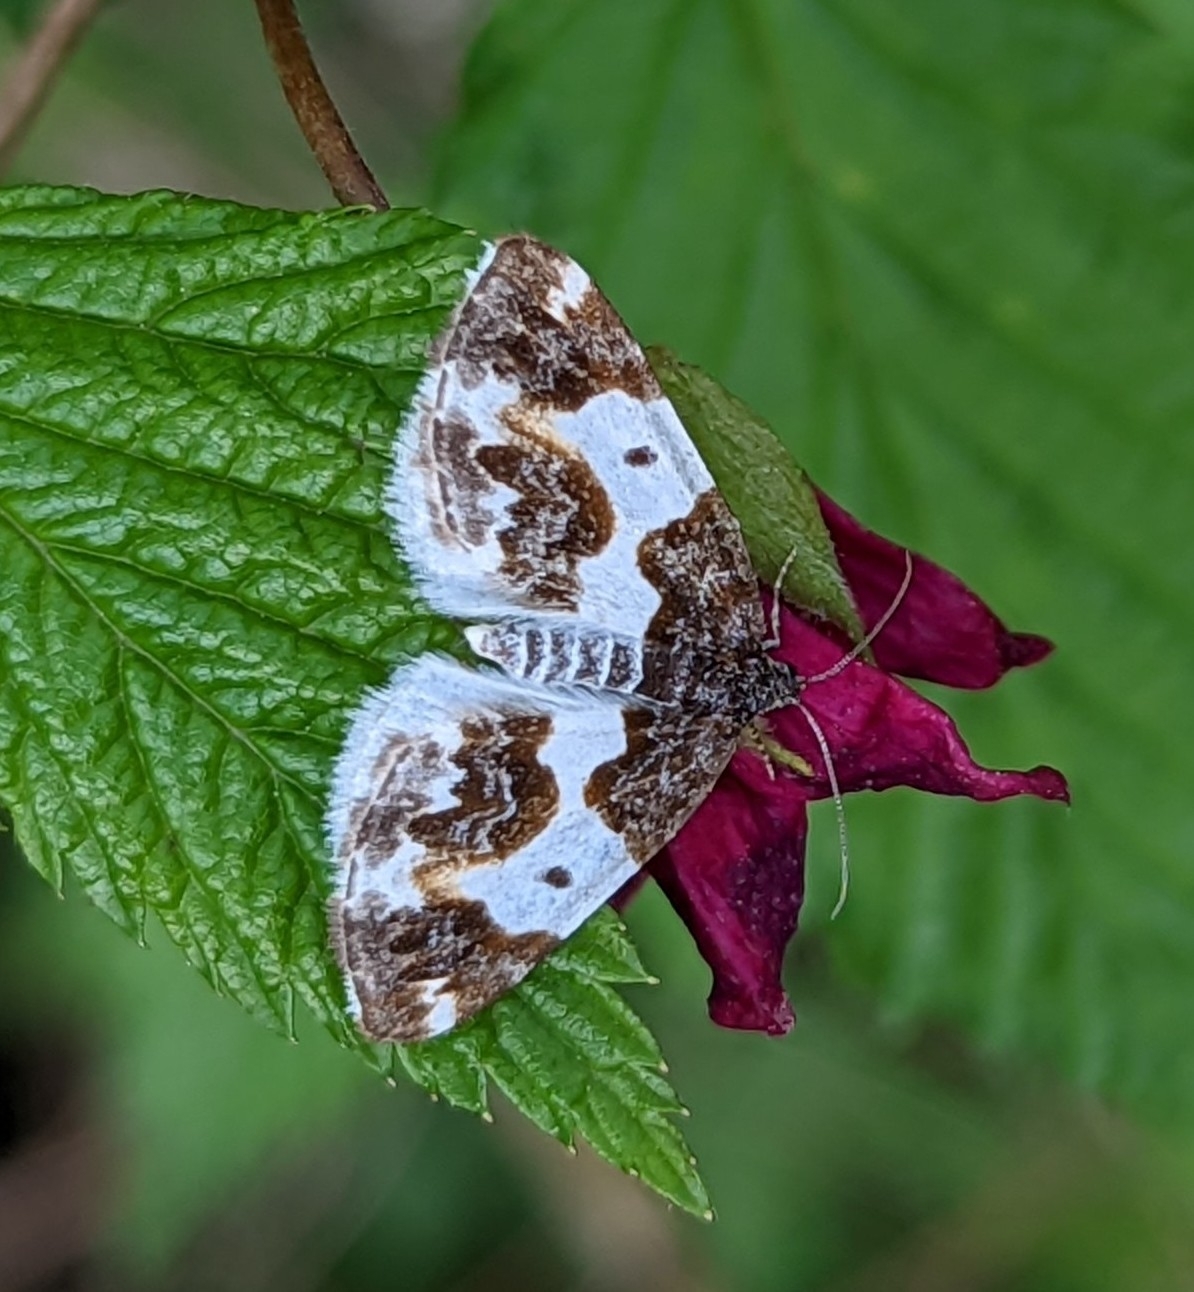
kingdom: Animalia
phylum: Arthropoda
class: Insecta
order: Lepidoptera
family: Geometridae
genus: Mesoleuca
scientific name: Mesoleuca gratulata
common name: Half-white carpet moth
